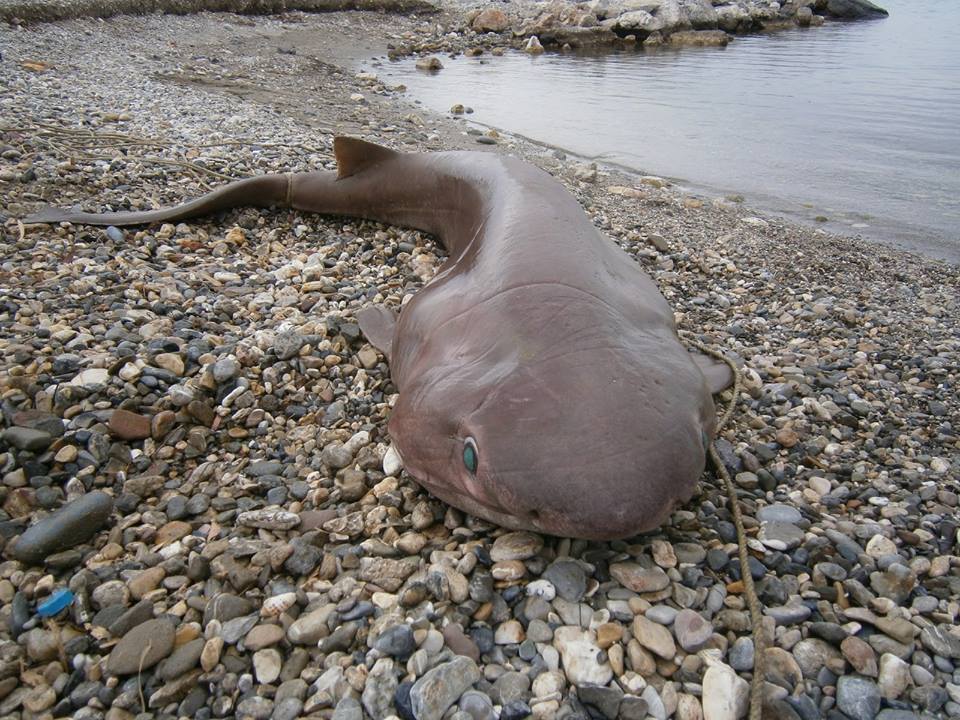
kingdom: Animalia
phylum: Chordata
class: Elasmobranchii
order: Hexanchiformes
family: Hexanchidae
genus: Hexanchus
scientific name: Hexanchus griseus
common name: Bluntnose sixgill shark
